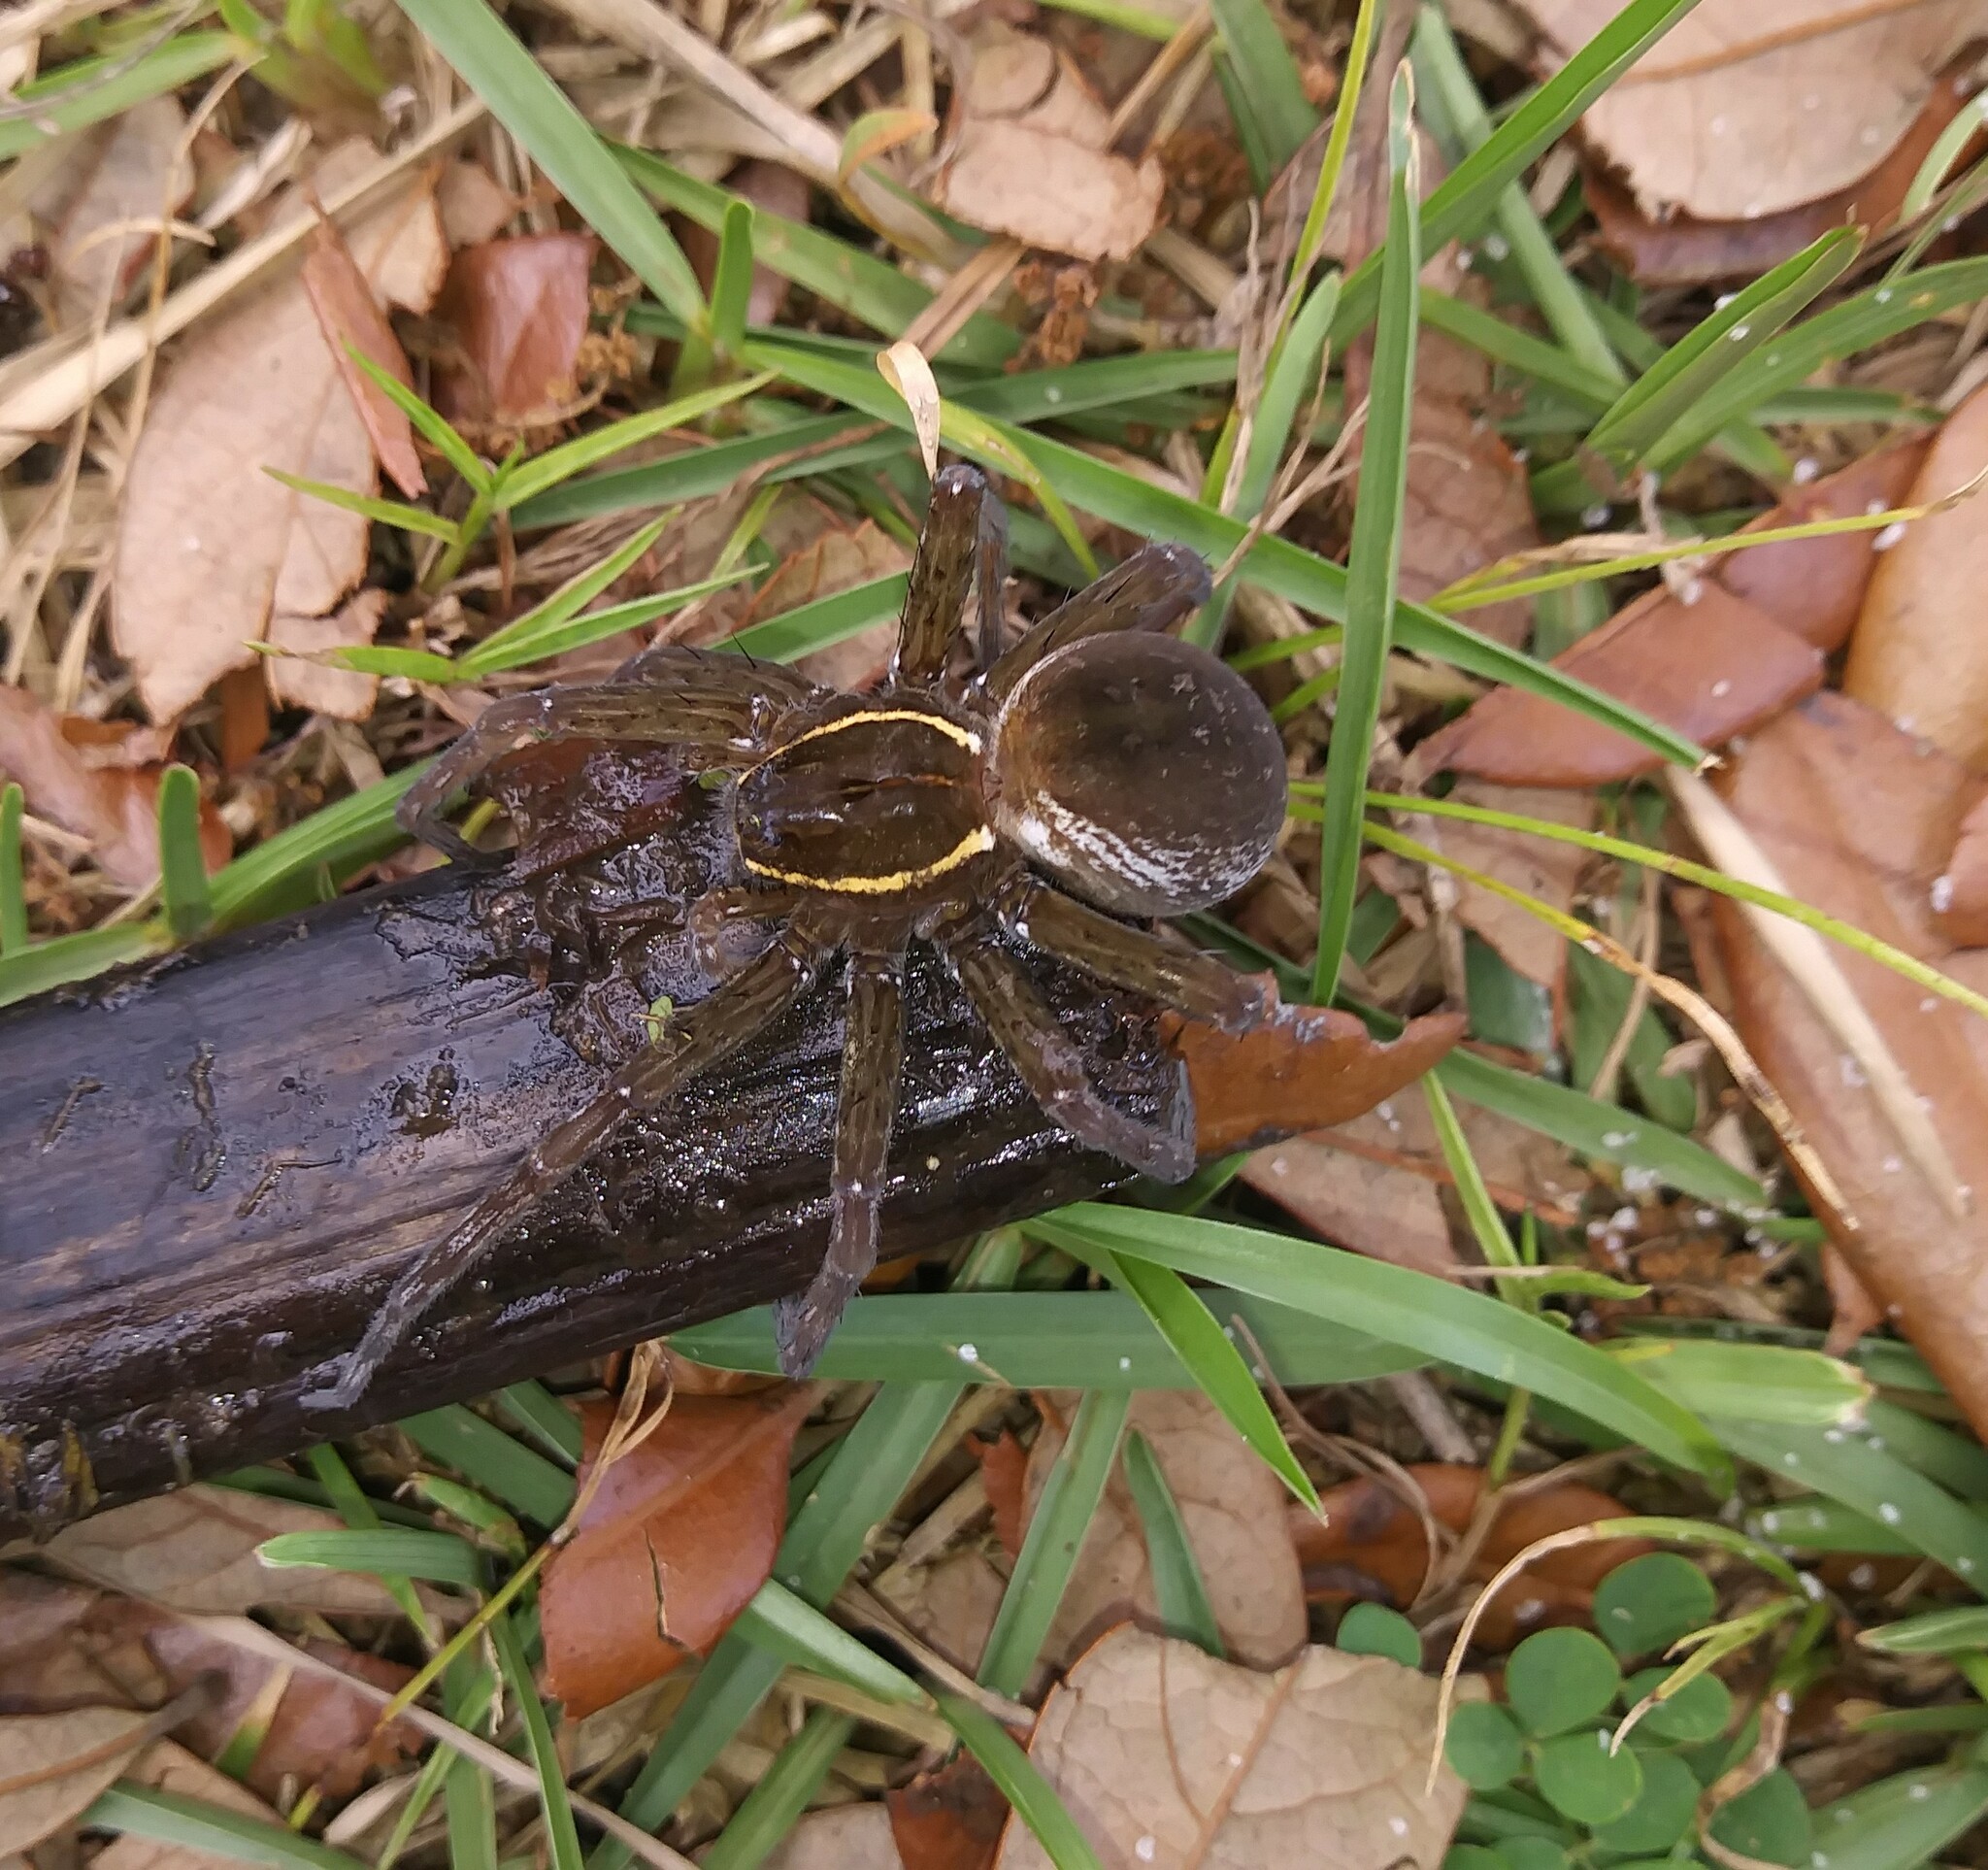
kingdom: Animalia
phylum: Arthropoda
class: Arachnida
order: Araneae
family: Pisauridae
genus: Dolomedes
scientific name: Dolomedes triton
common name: Six-spotted fishing spider
